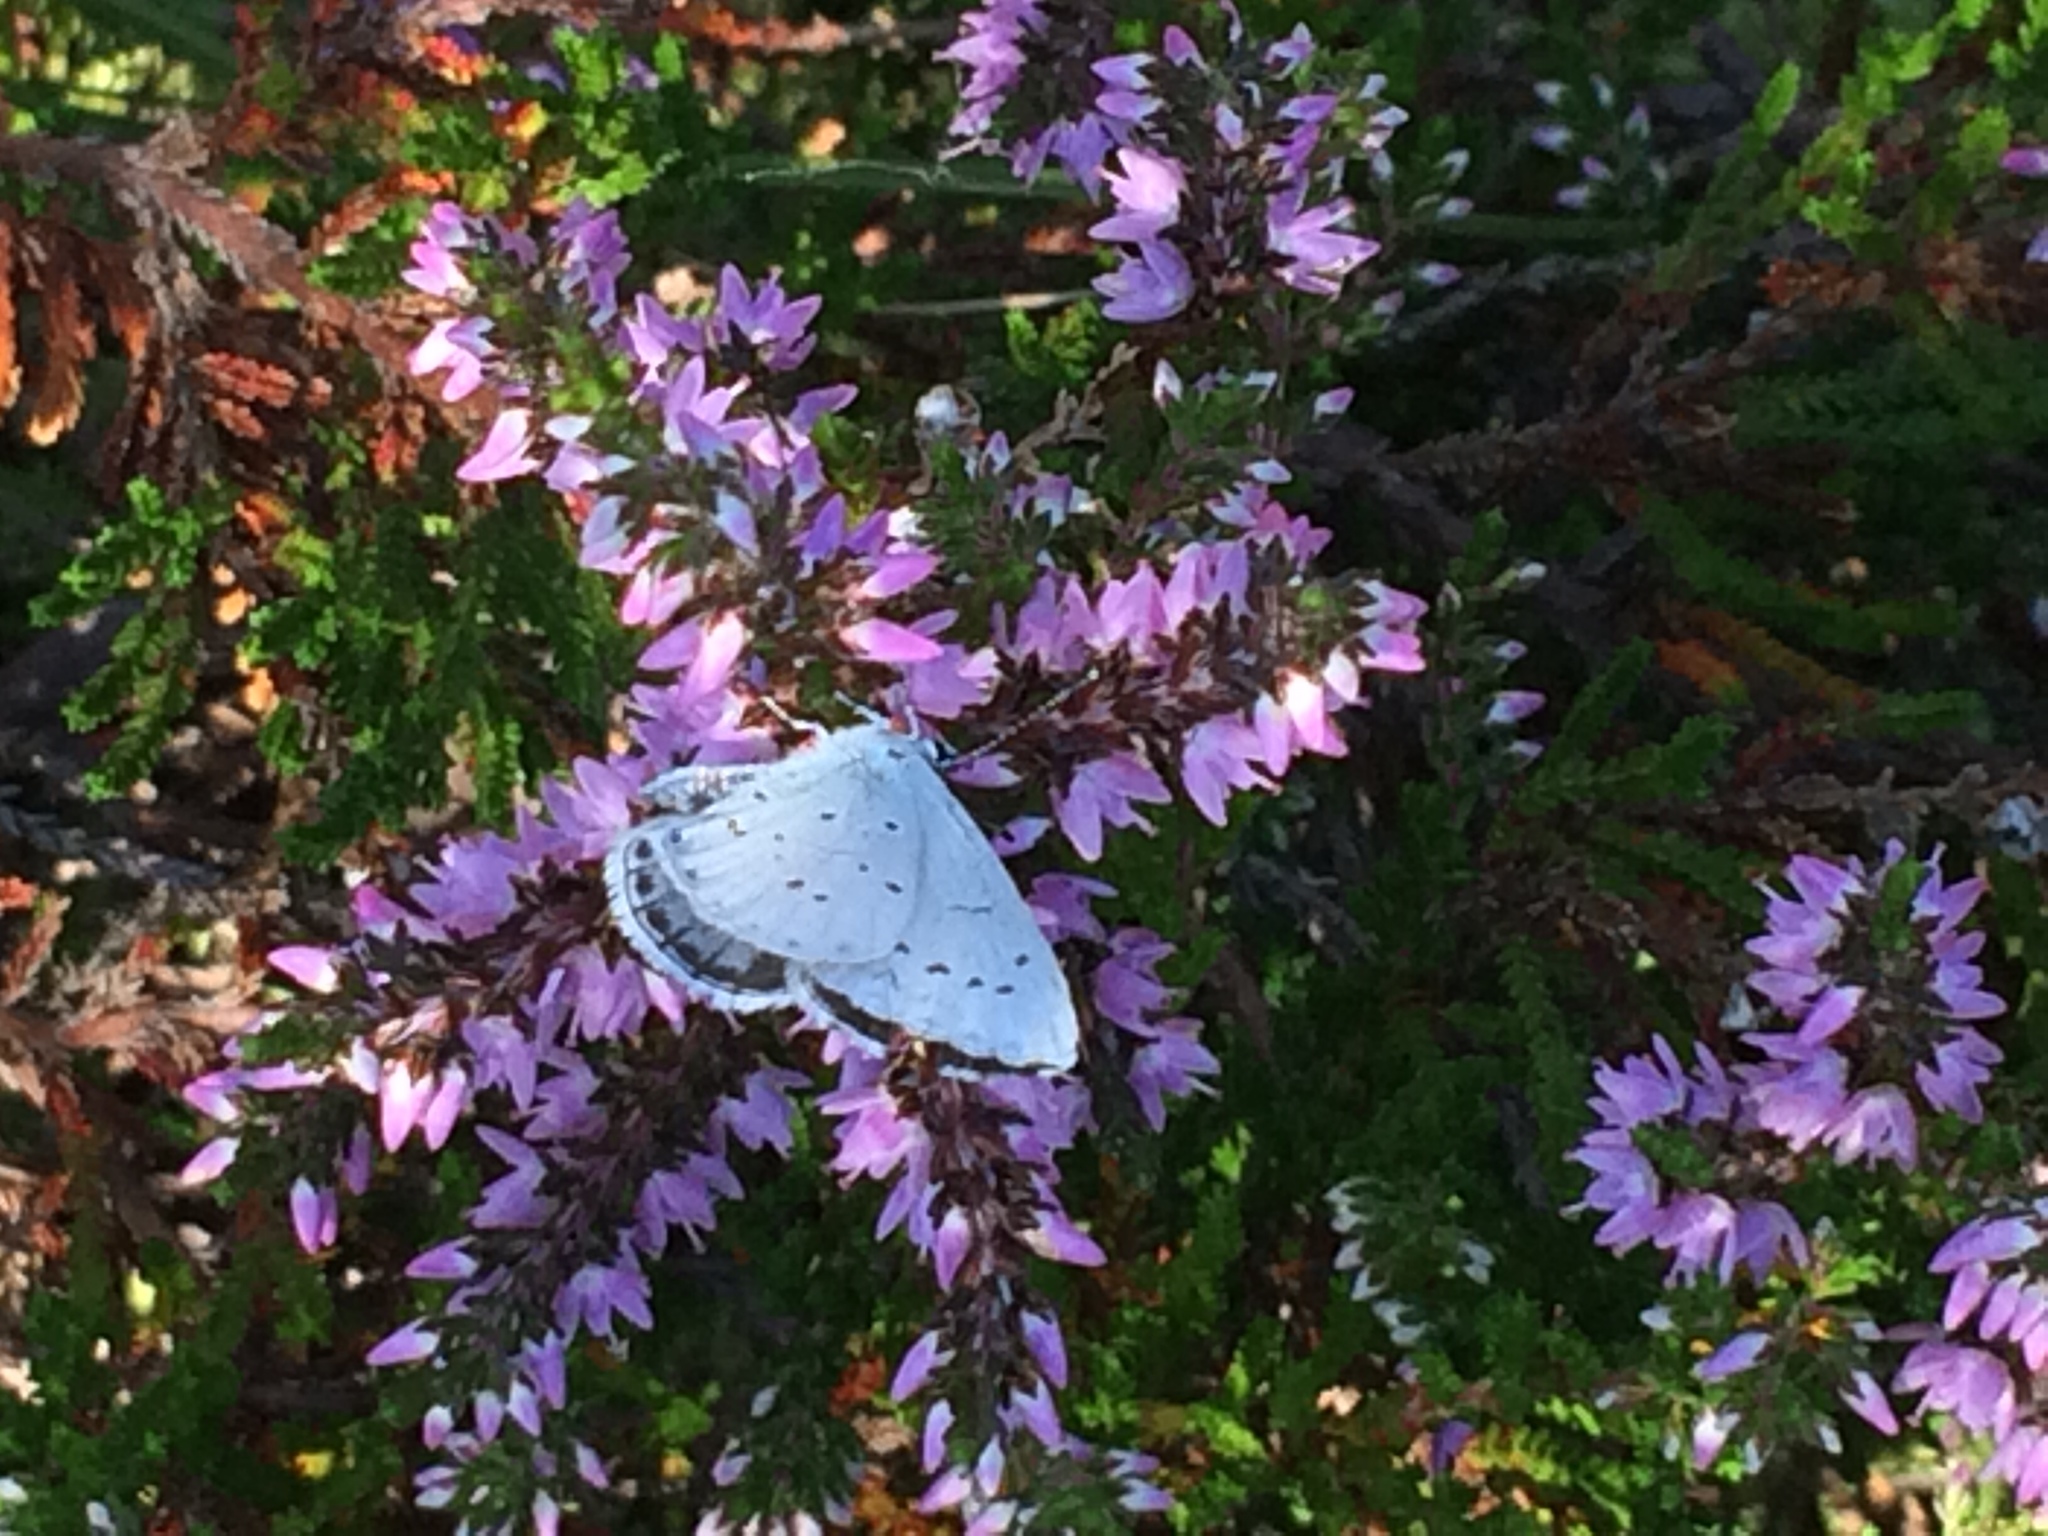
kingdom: Animalia
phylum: Arthropoda
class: Insecta
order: Lepidoptera
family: Lycaenidae
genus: Celastrina
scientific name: Celastrina argiolus
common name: Holly blue
